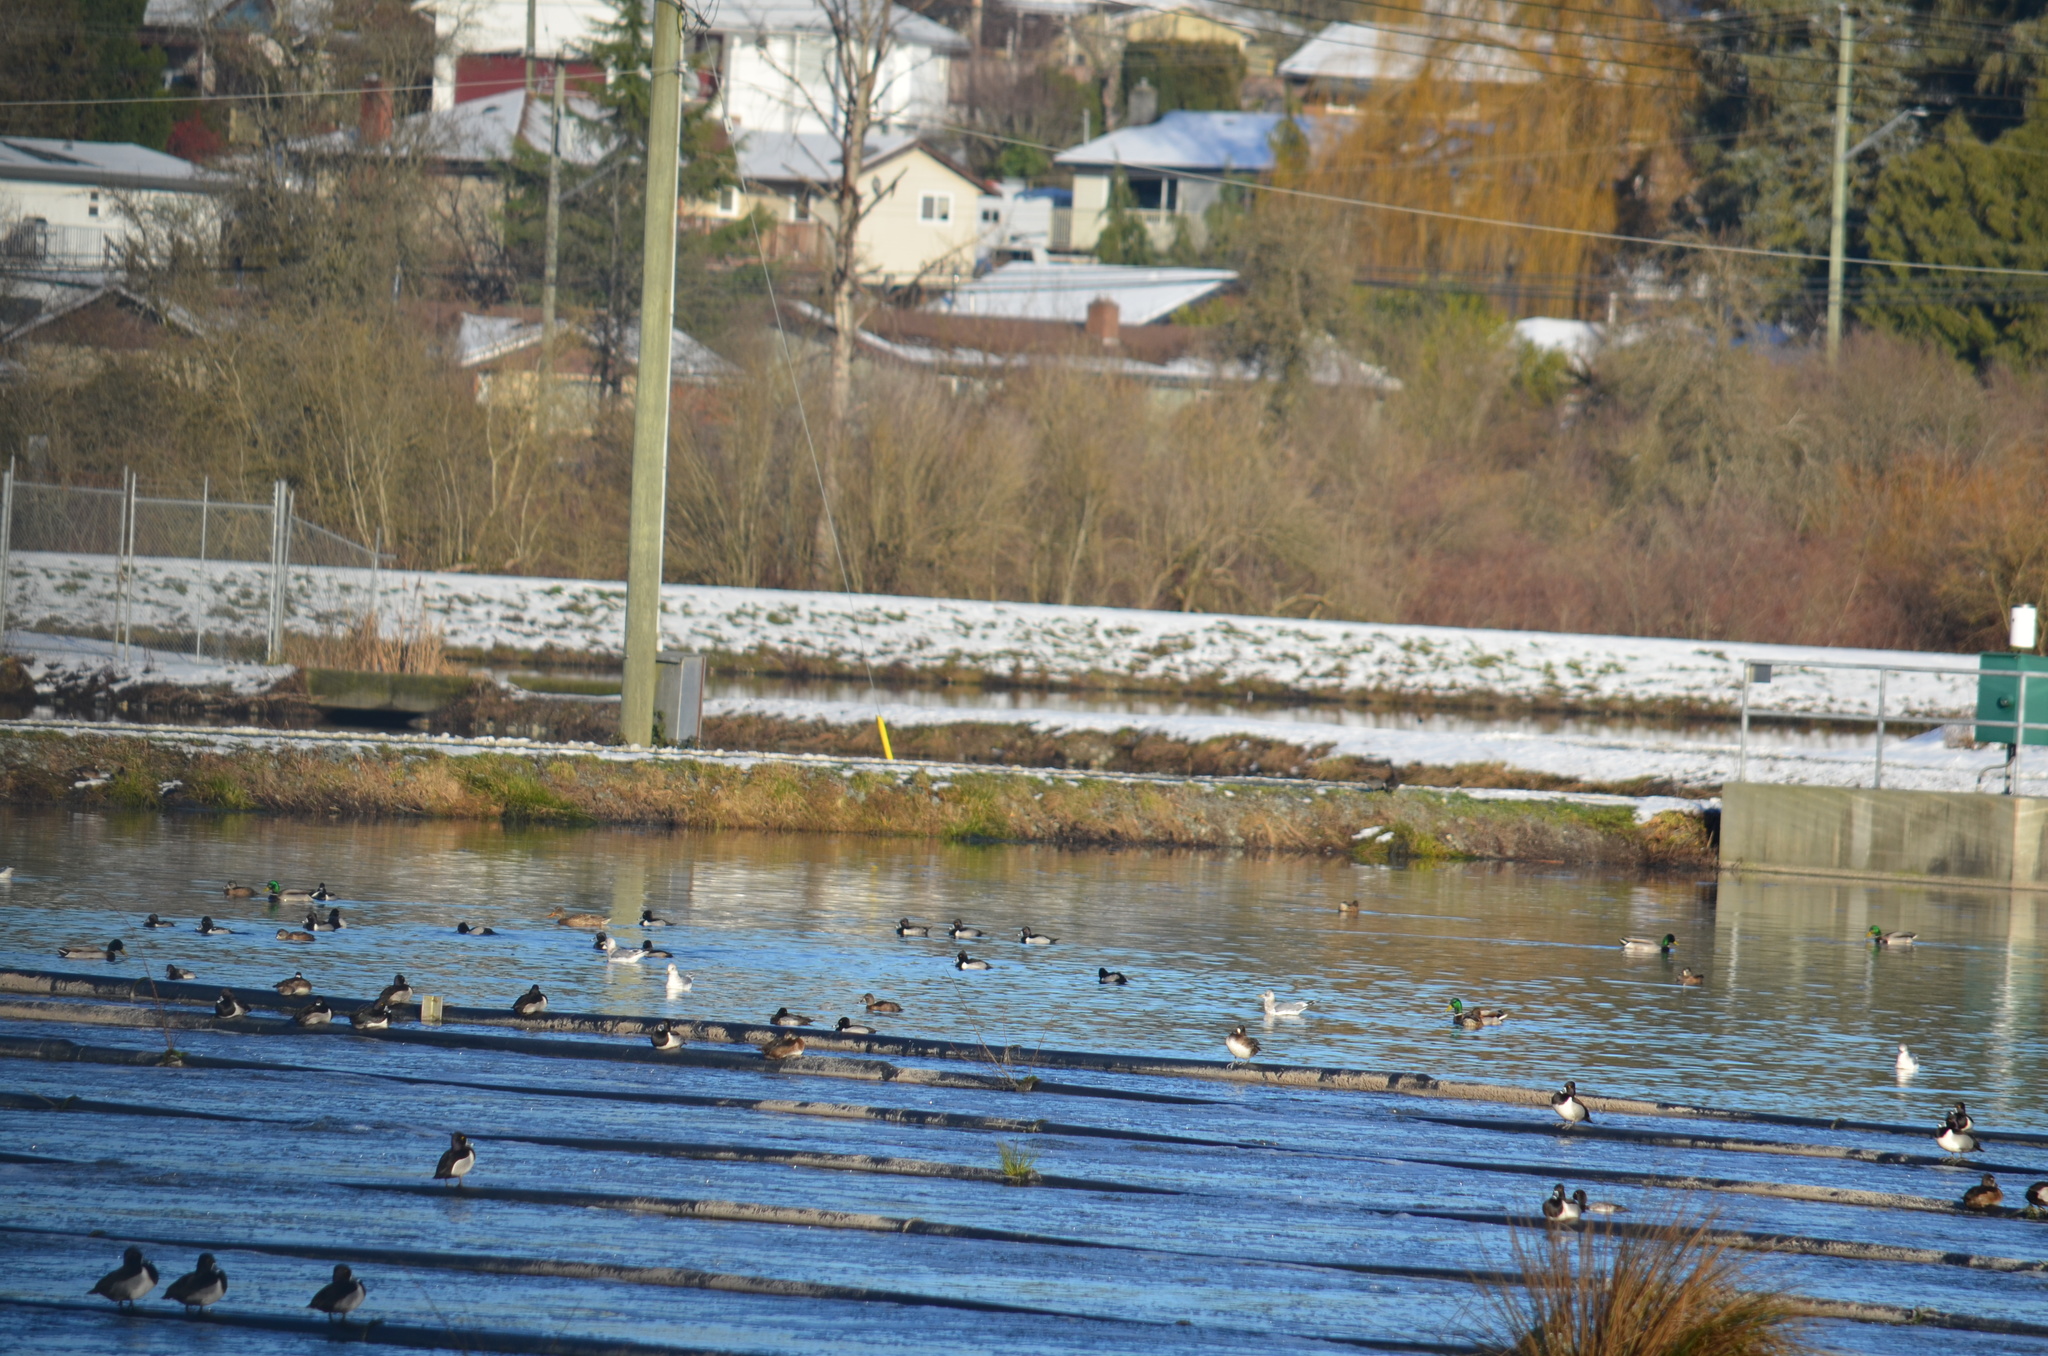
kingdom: Animalia
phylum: Chordata
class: Aves
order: Anseriformes
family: Anatidae
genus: Aythya
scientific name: Aythya collaris
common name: Ring-necked duck
